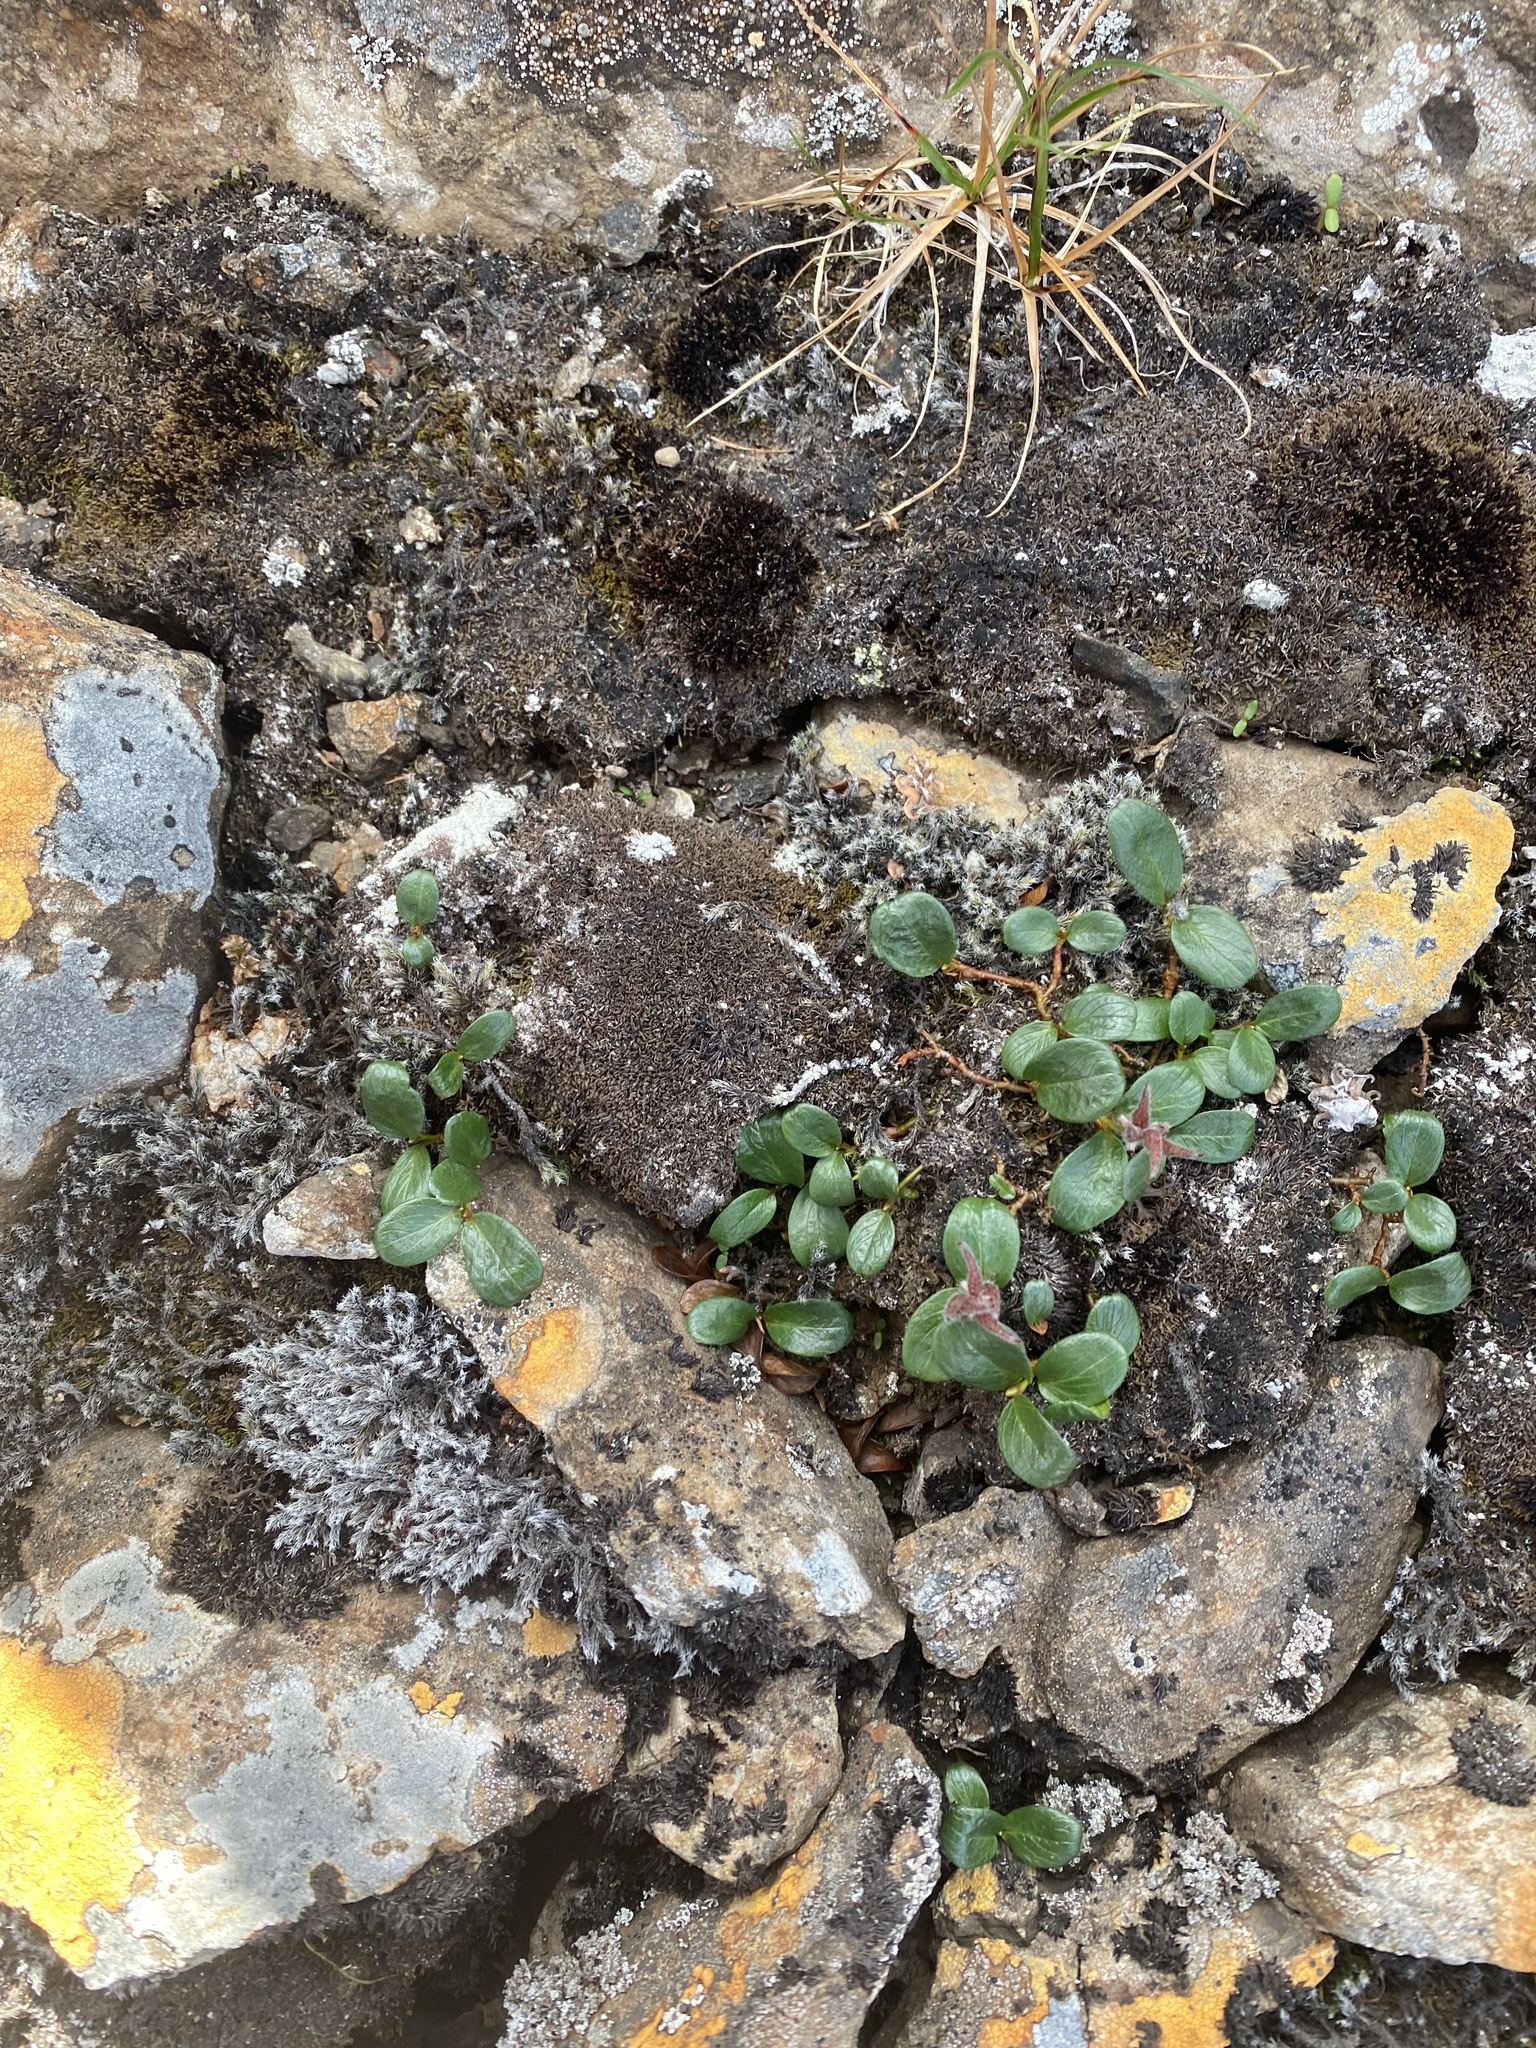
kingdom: Plantae
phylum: Tracheophyta
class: Magnoliopsida
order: Malpighiales
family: Salicaceae
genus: Salix
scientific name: Salix polaris
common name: Polar willow
